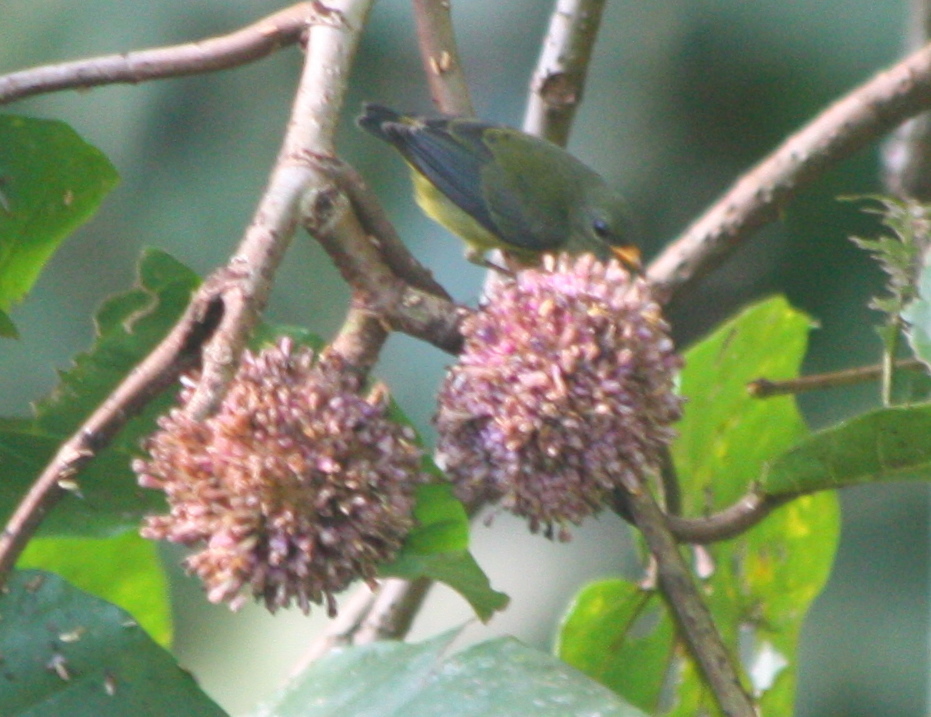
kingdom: Animalia
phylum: Chordata
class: Aves
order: Passeriformes
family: Dicaeidae
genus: Dicaeum
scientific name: Dicaeum trigonostigma
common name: Orange-bellied flowerpecker
